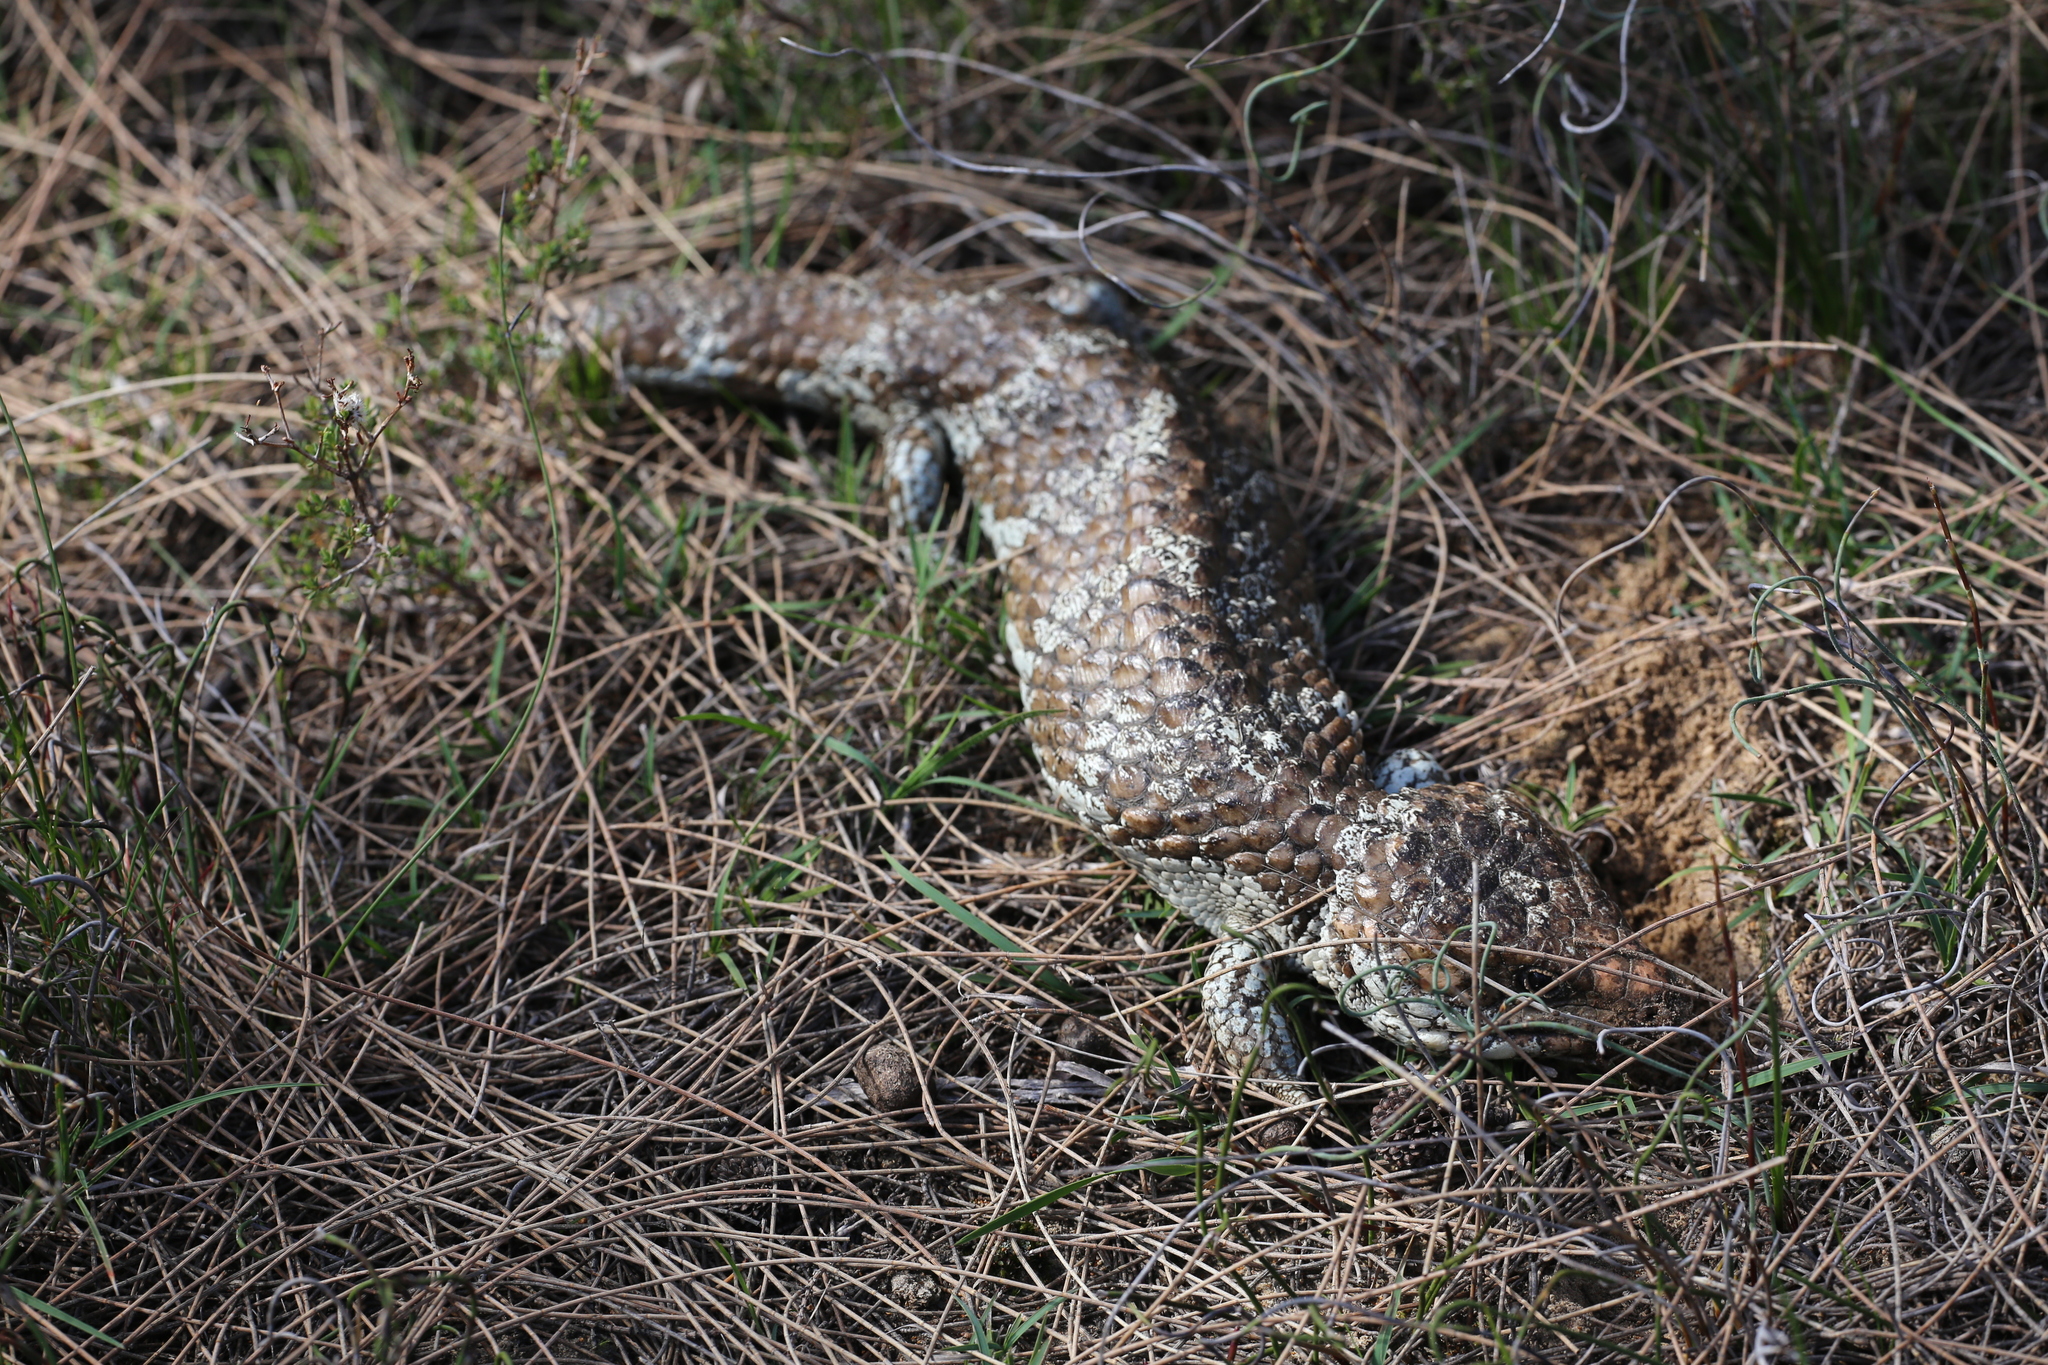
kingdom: Animalia
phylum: Chordata
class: Squamata
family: Scincidae
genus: Tiliqua
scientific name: Tiliqua rugosa
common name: Pinecone lizard
